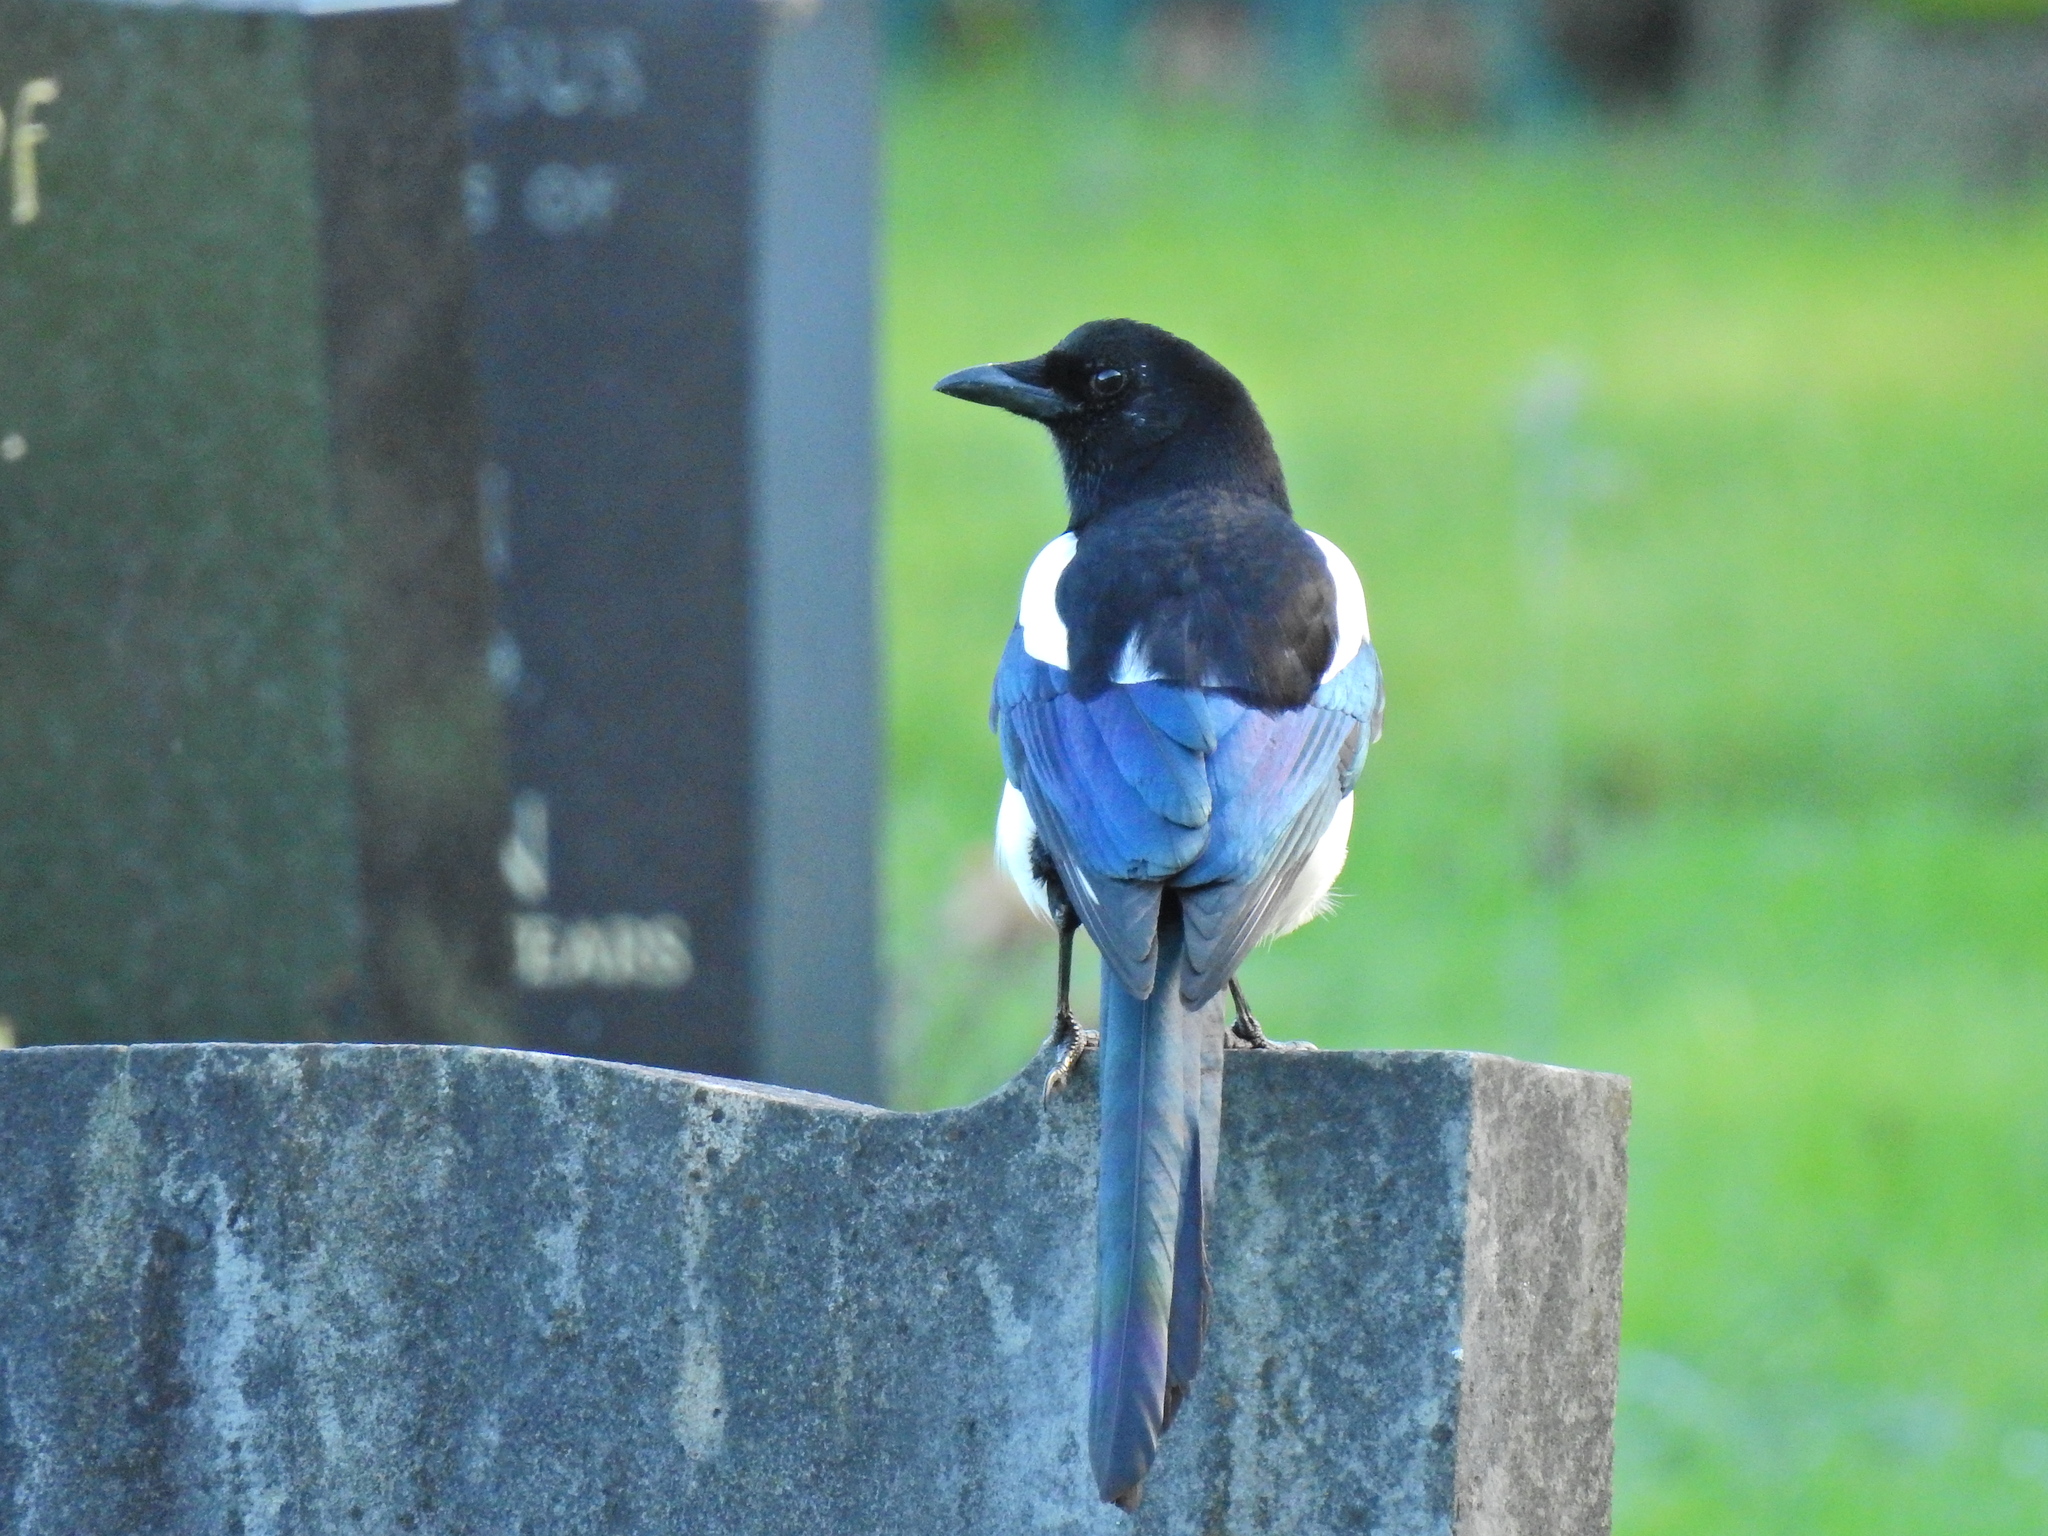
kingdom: Animalia
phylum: Chordata
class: Aves
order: Passeriformes
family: Corvidae
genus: Pica
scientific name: Pica pica
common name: Eurasian magpie
